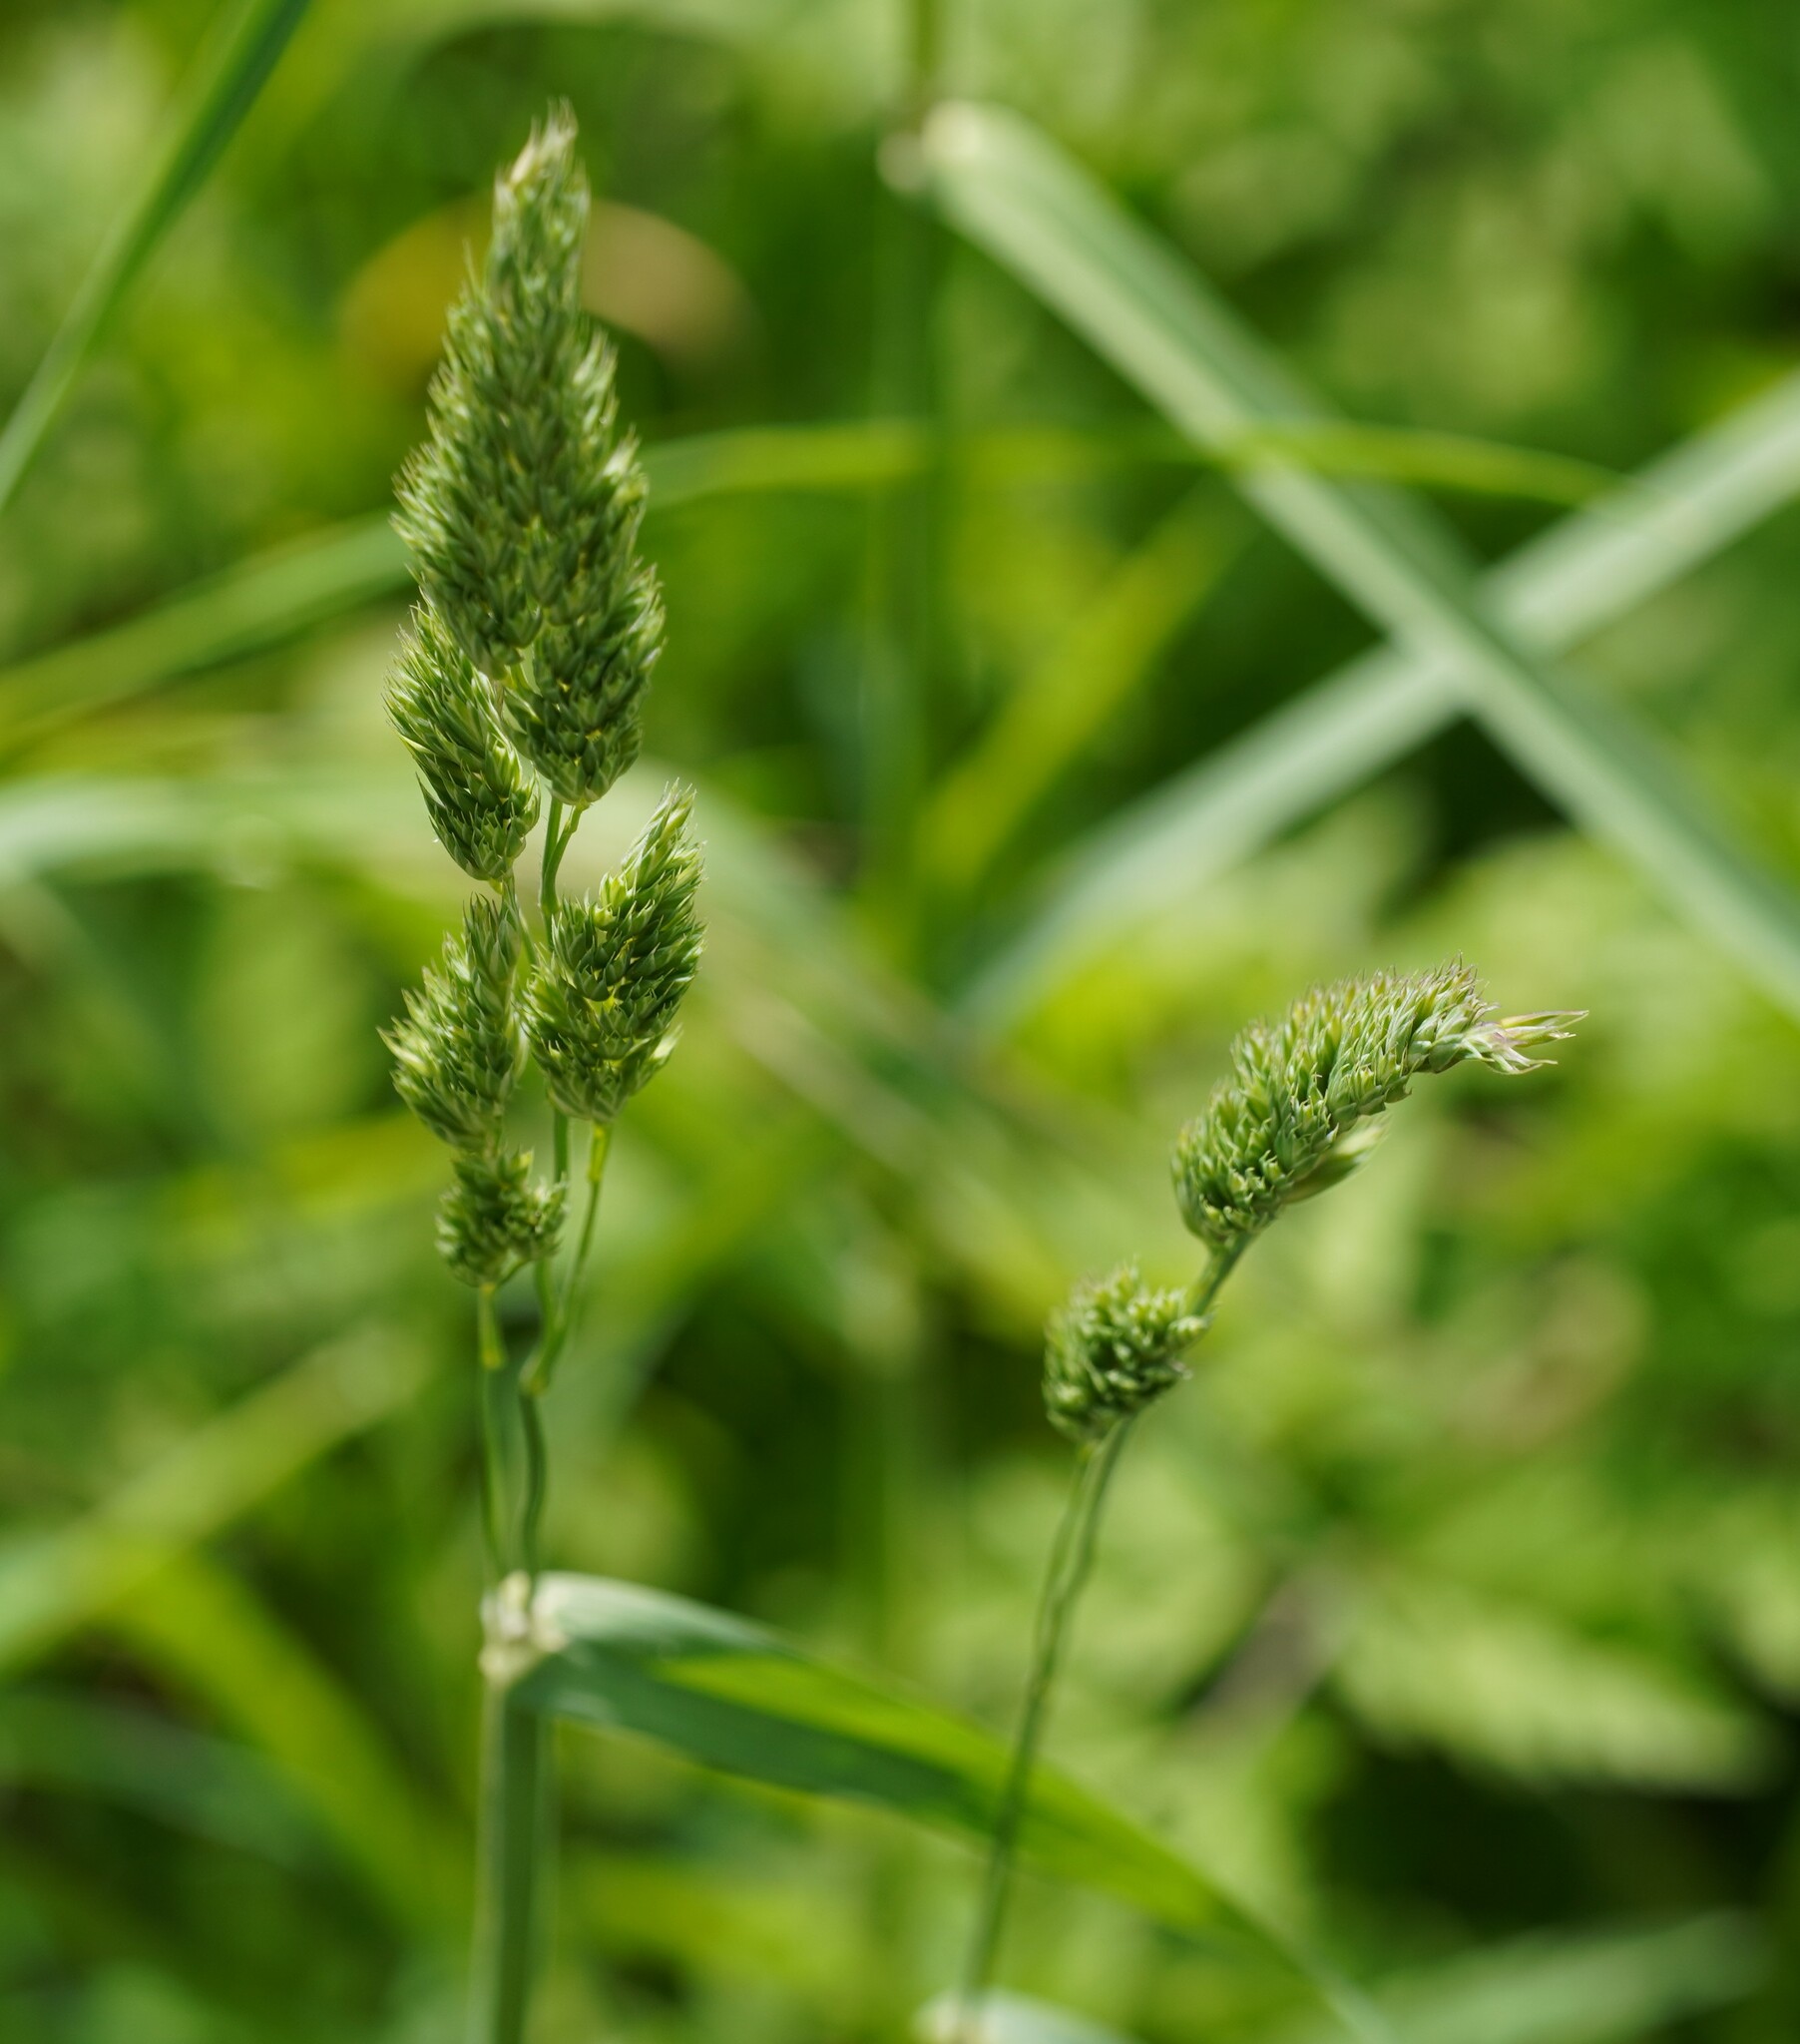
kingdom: Plantae
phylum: Tracheophyta
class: Liliopsida
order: Poales
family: Poaceae
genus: Dactylis
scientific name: Dactylis glomerata
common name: Orchardgrass
